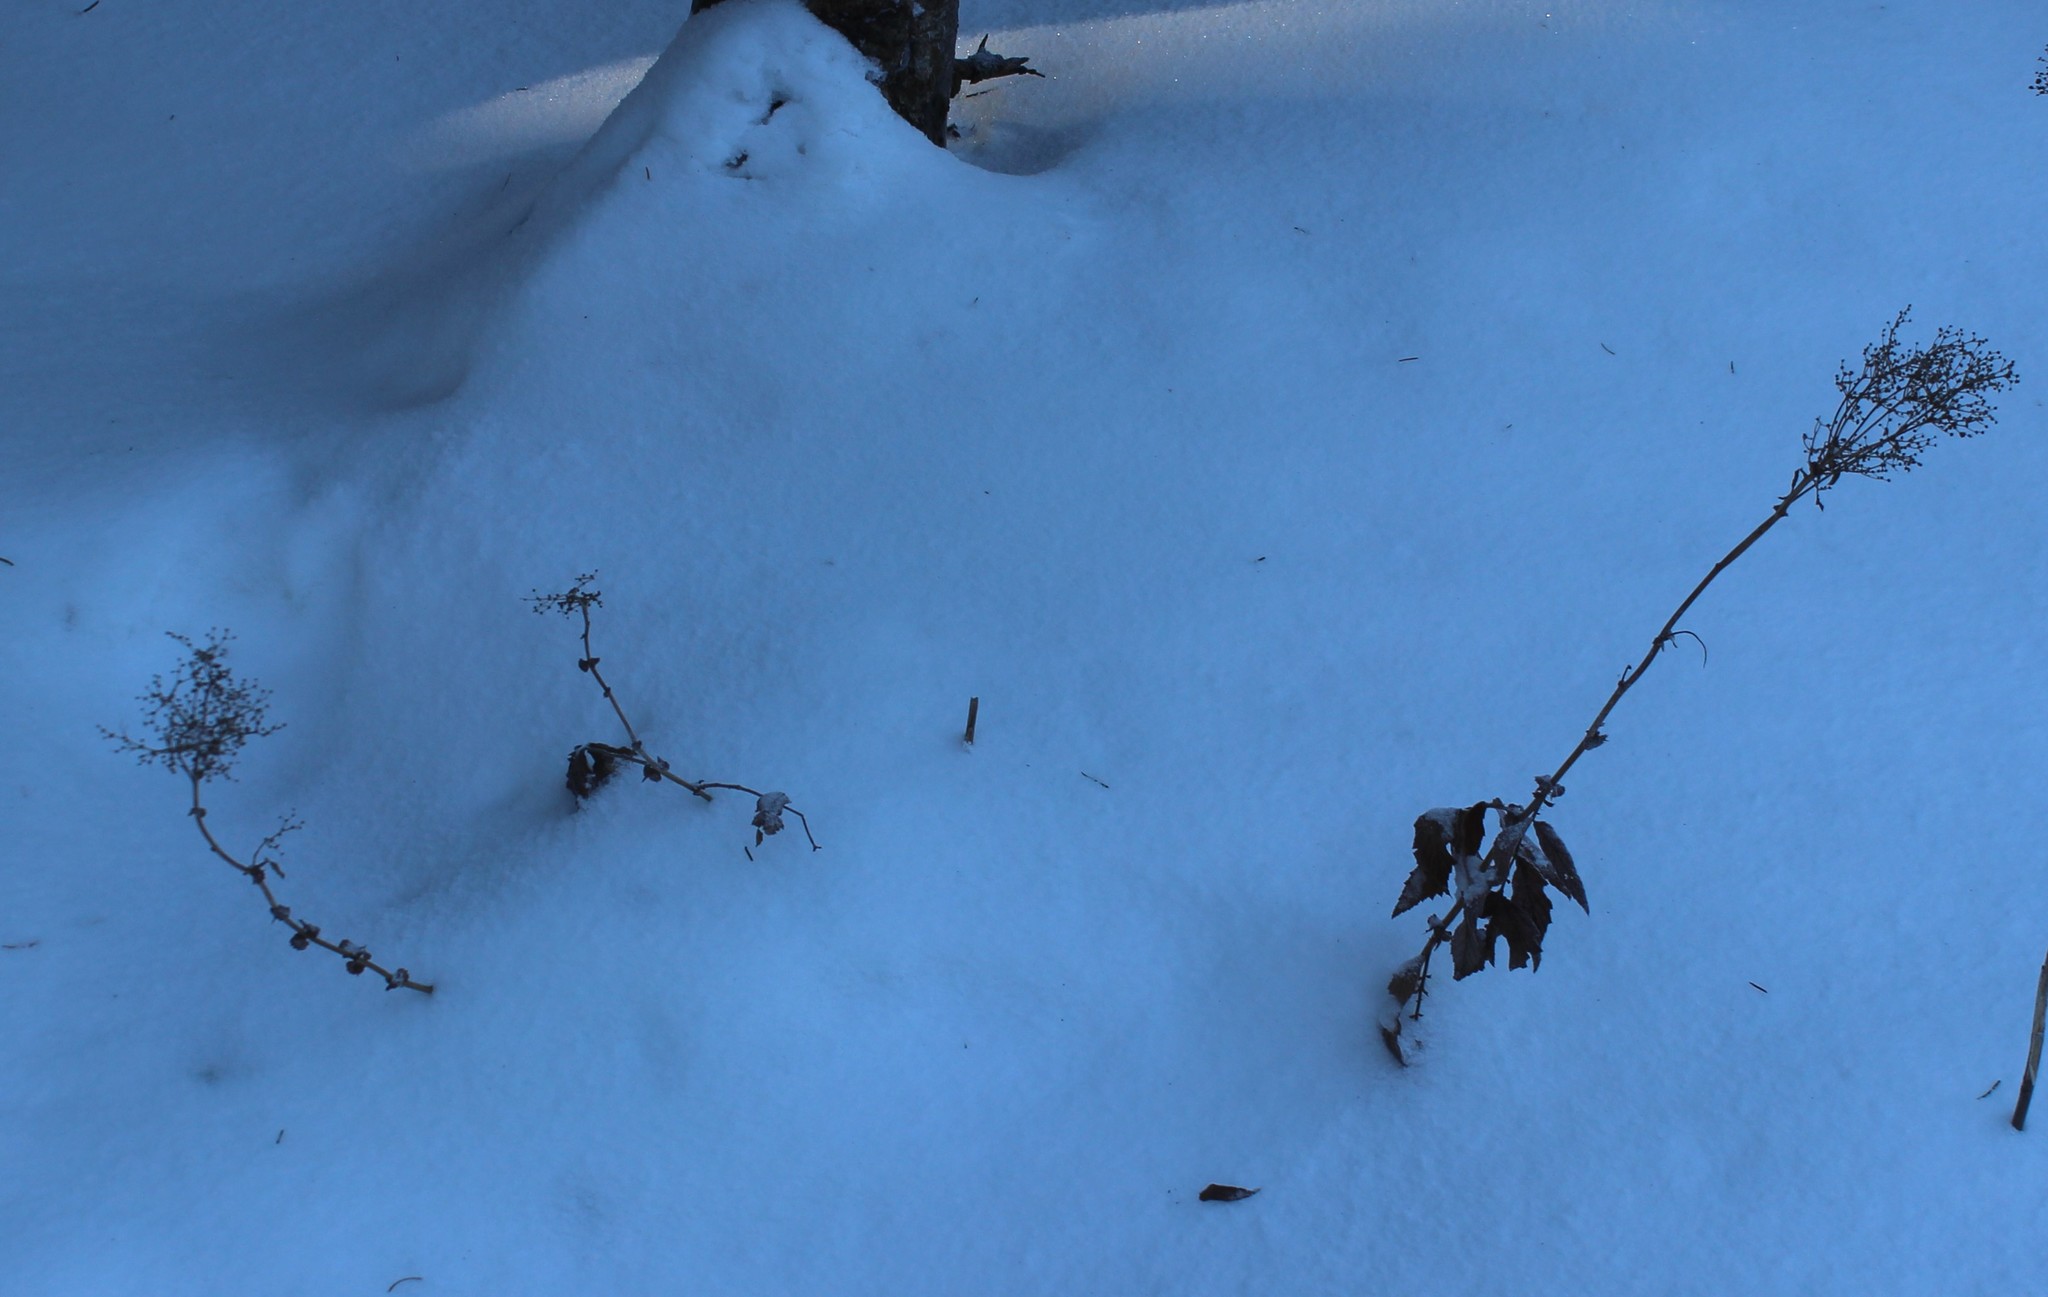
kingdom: Plantae
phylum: Tracheophyta
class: Magnoliopsida
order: Rosales
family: Rosaceae
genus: Filipendula
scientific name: Filipendula ulmaria
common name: Meadowsweet
